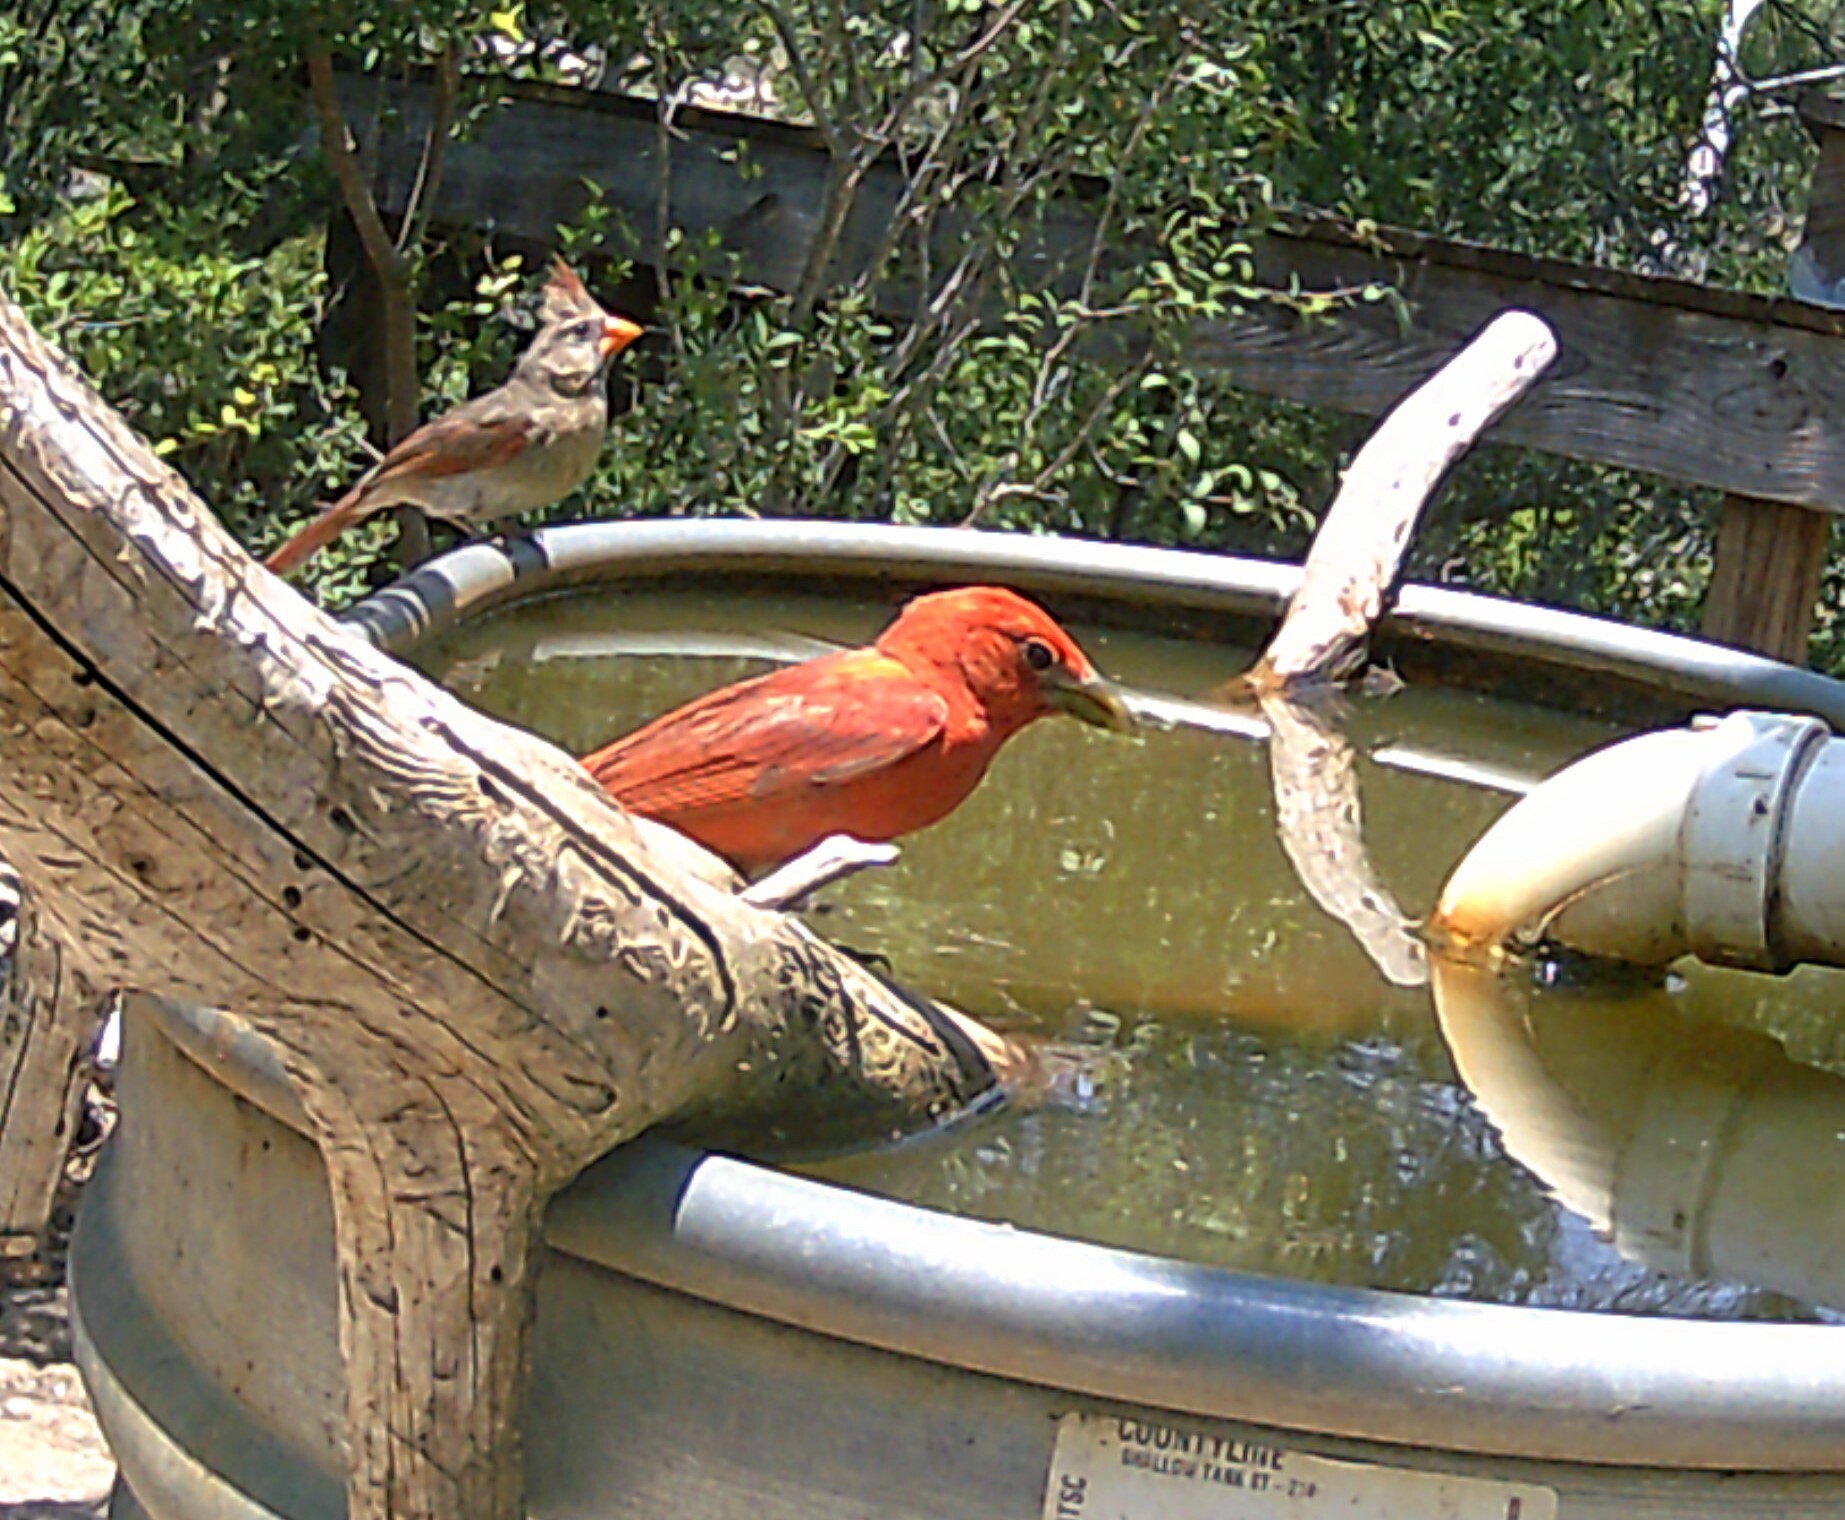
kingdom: Animalia
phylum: Chordata
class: Aves
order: Passeriformes
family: Cardinalidae
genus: Piranga
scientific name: Piranga rubra
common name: Summer tanager
